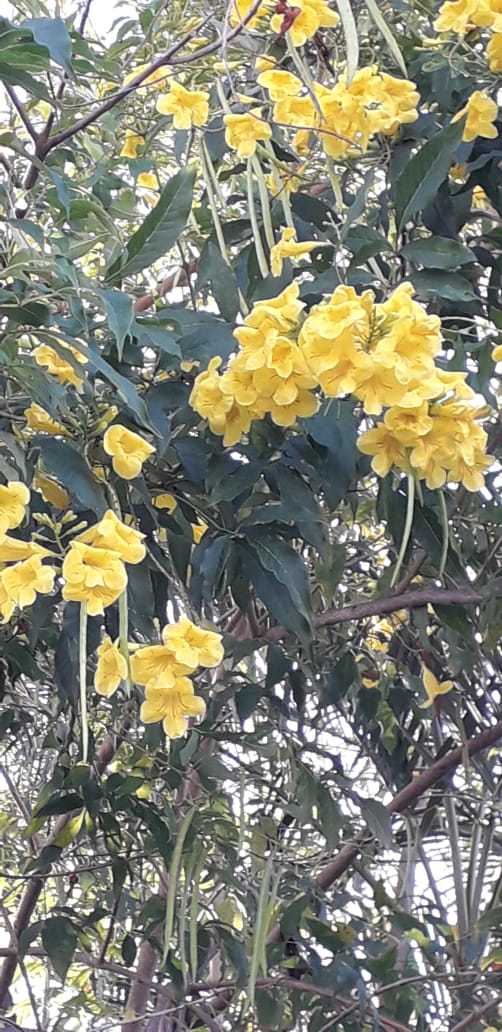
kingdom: Plantae
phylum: Tracheophyta
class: Magnoliopsida
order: Lamiales
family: Bignoniaceae
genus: Tecoma
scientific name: Tecoma stans
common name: Yellow trumpetbush
